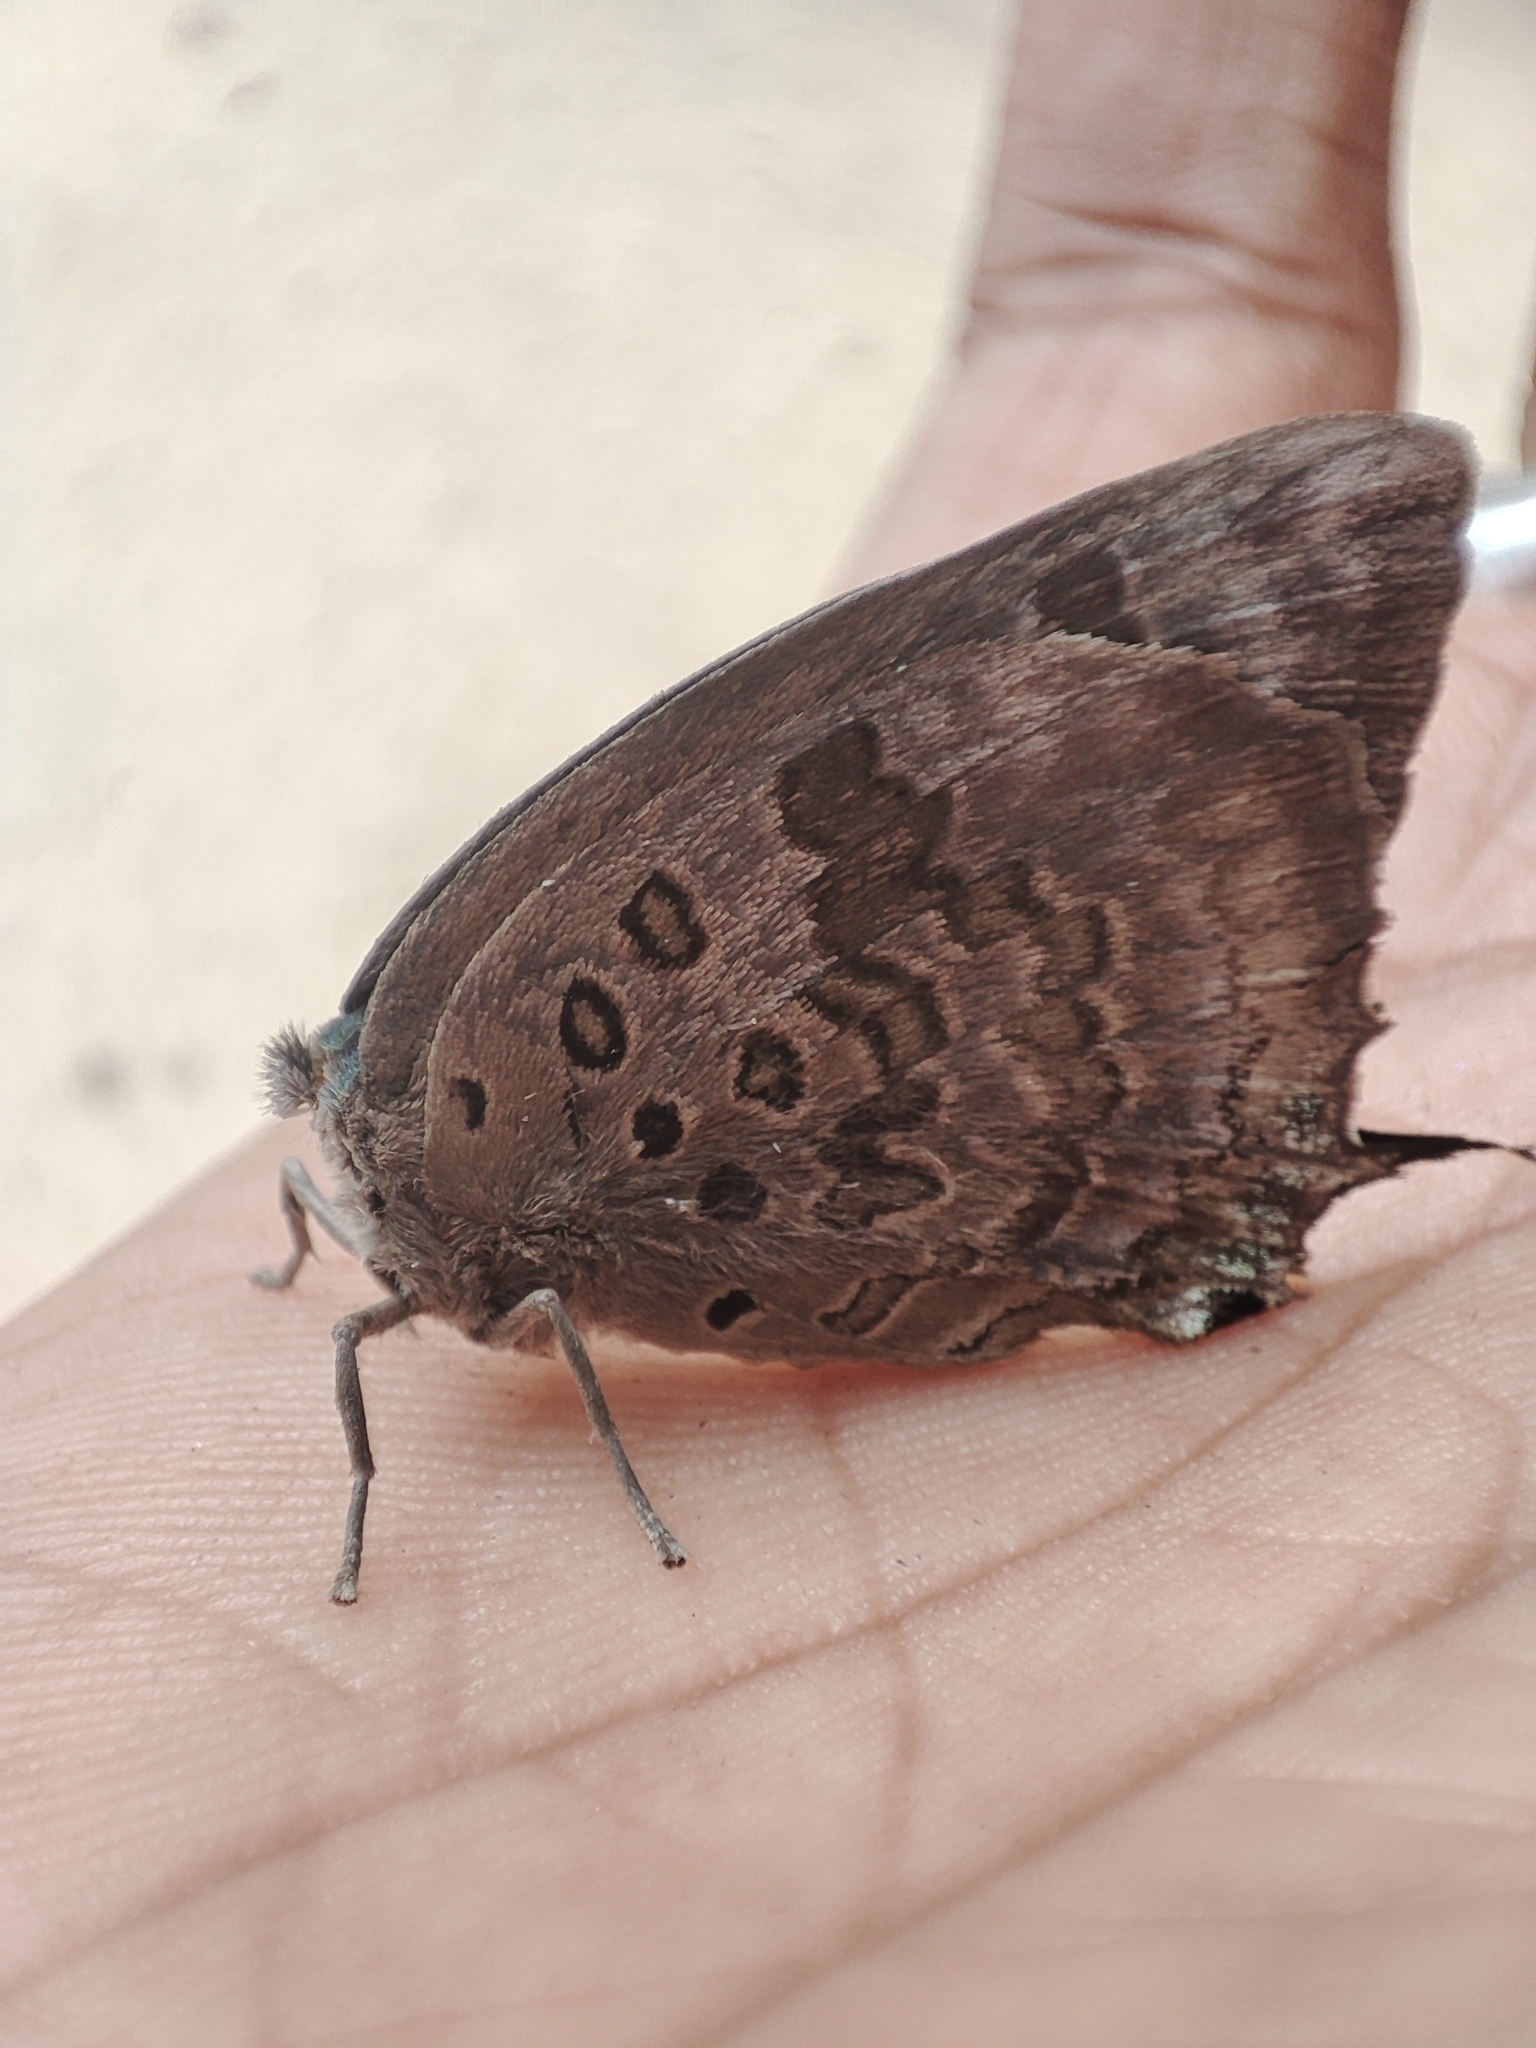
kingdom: Animalia
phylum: Arthropoda
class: Insecta
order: Lepidoptera
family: Lycaenidae
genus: Arhopala
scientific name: Arhopala amantes
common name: Large oakblue
